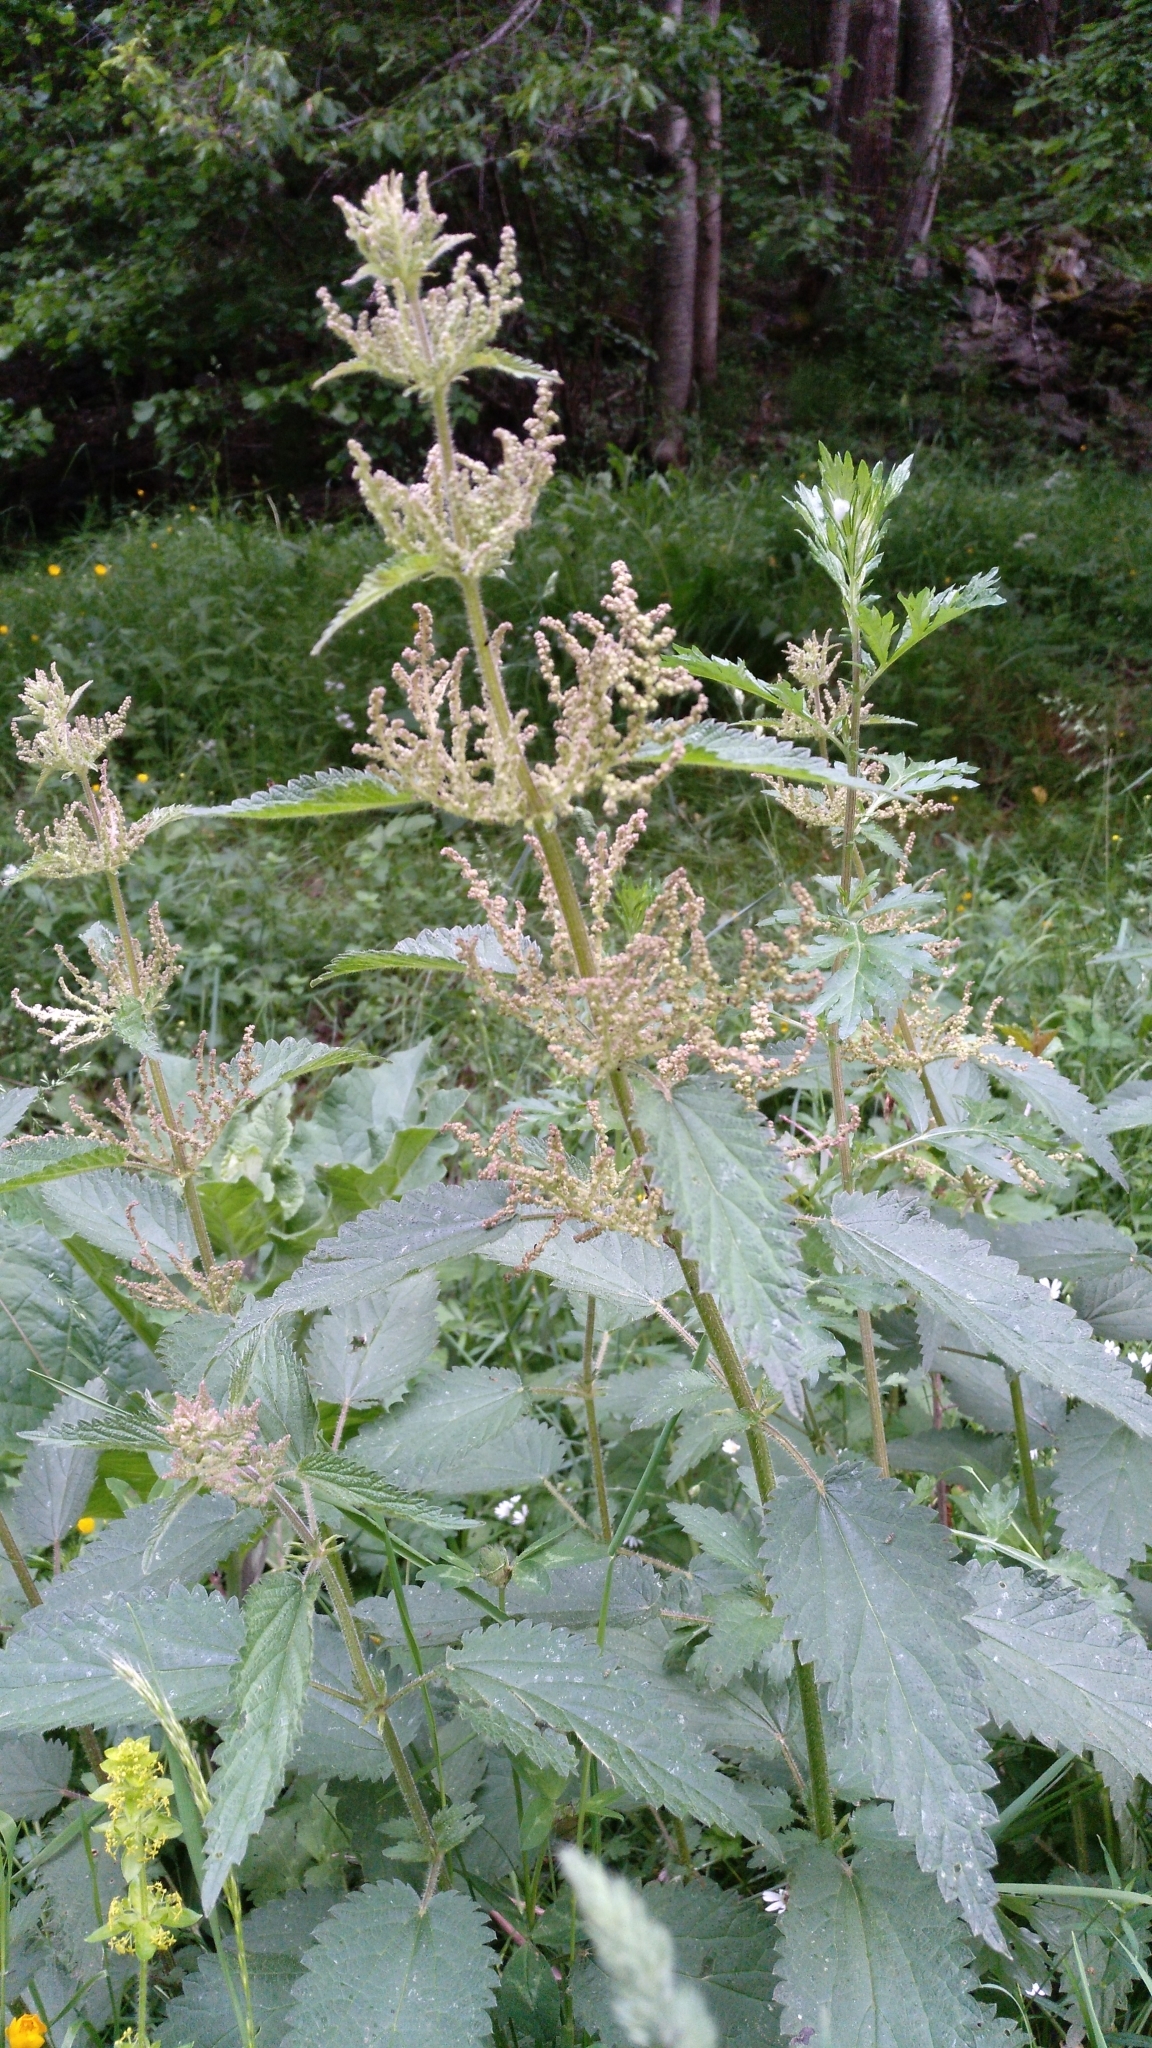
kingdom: Plantae
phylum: Tracheophyta
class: Magnoliopsida
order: Rosales
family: Urticaceae
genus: Urtica
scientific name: Urtica dioica
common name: Common nettle
